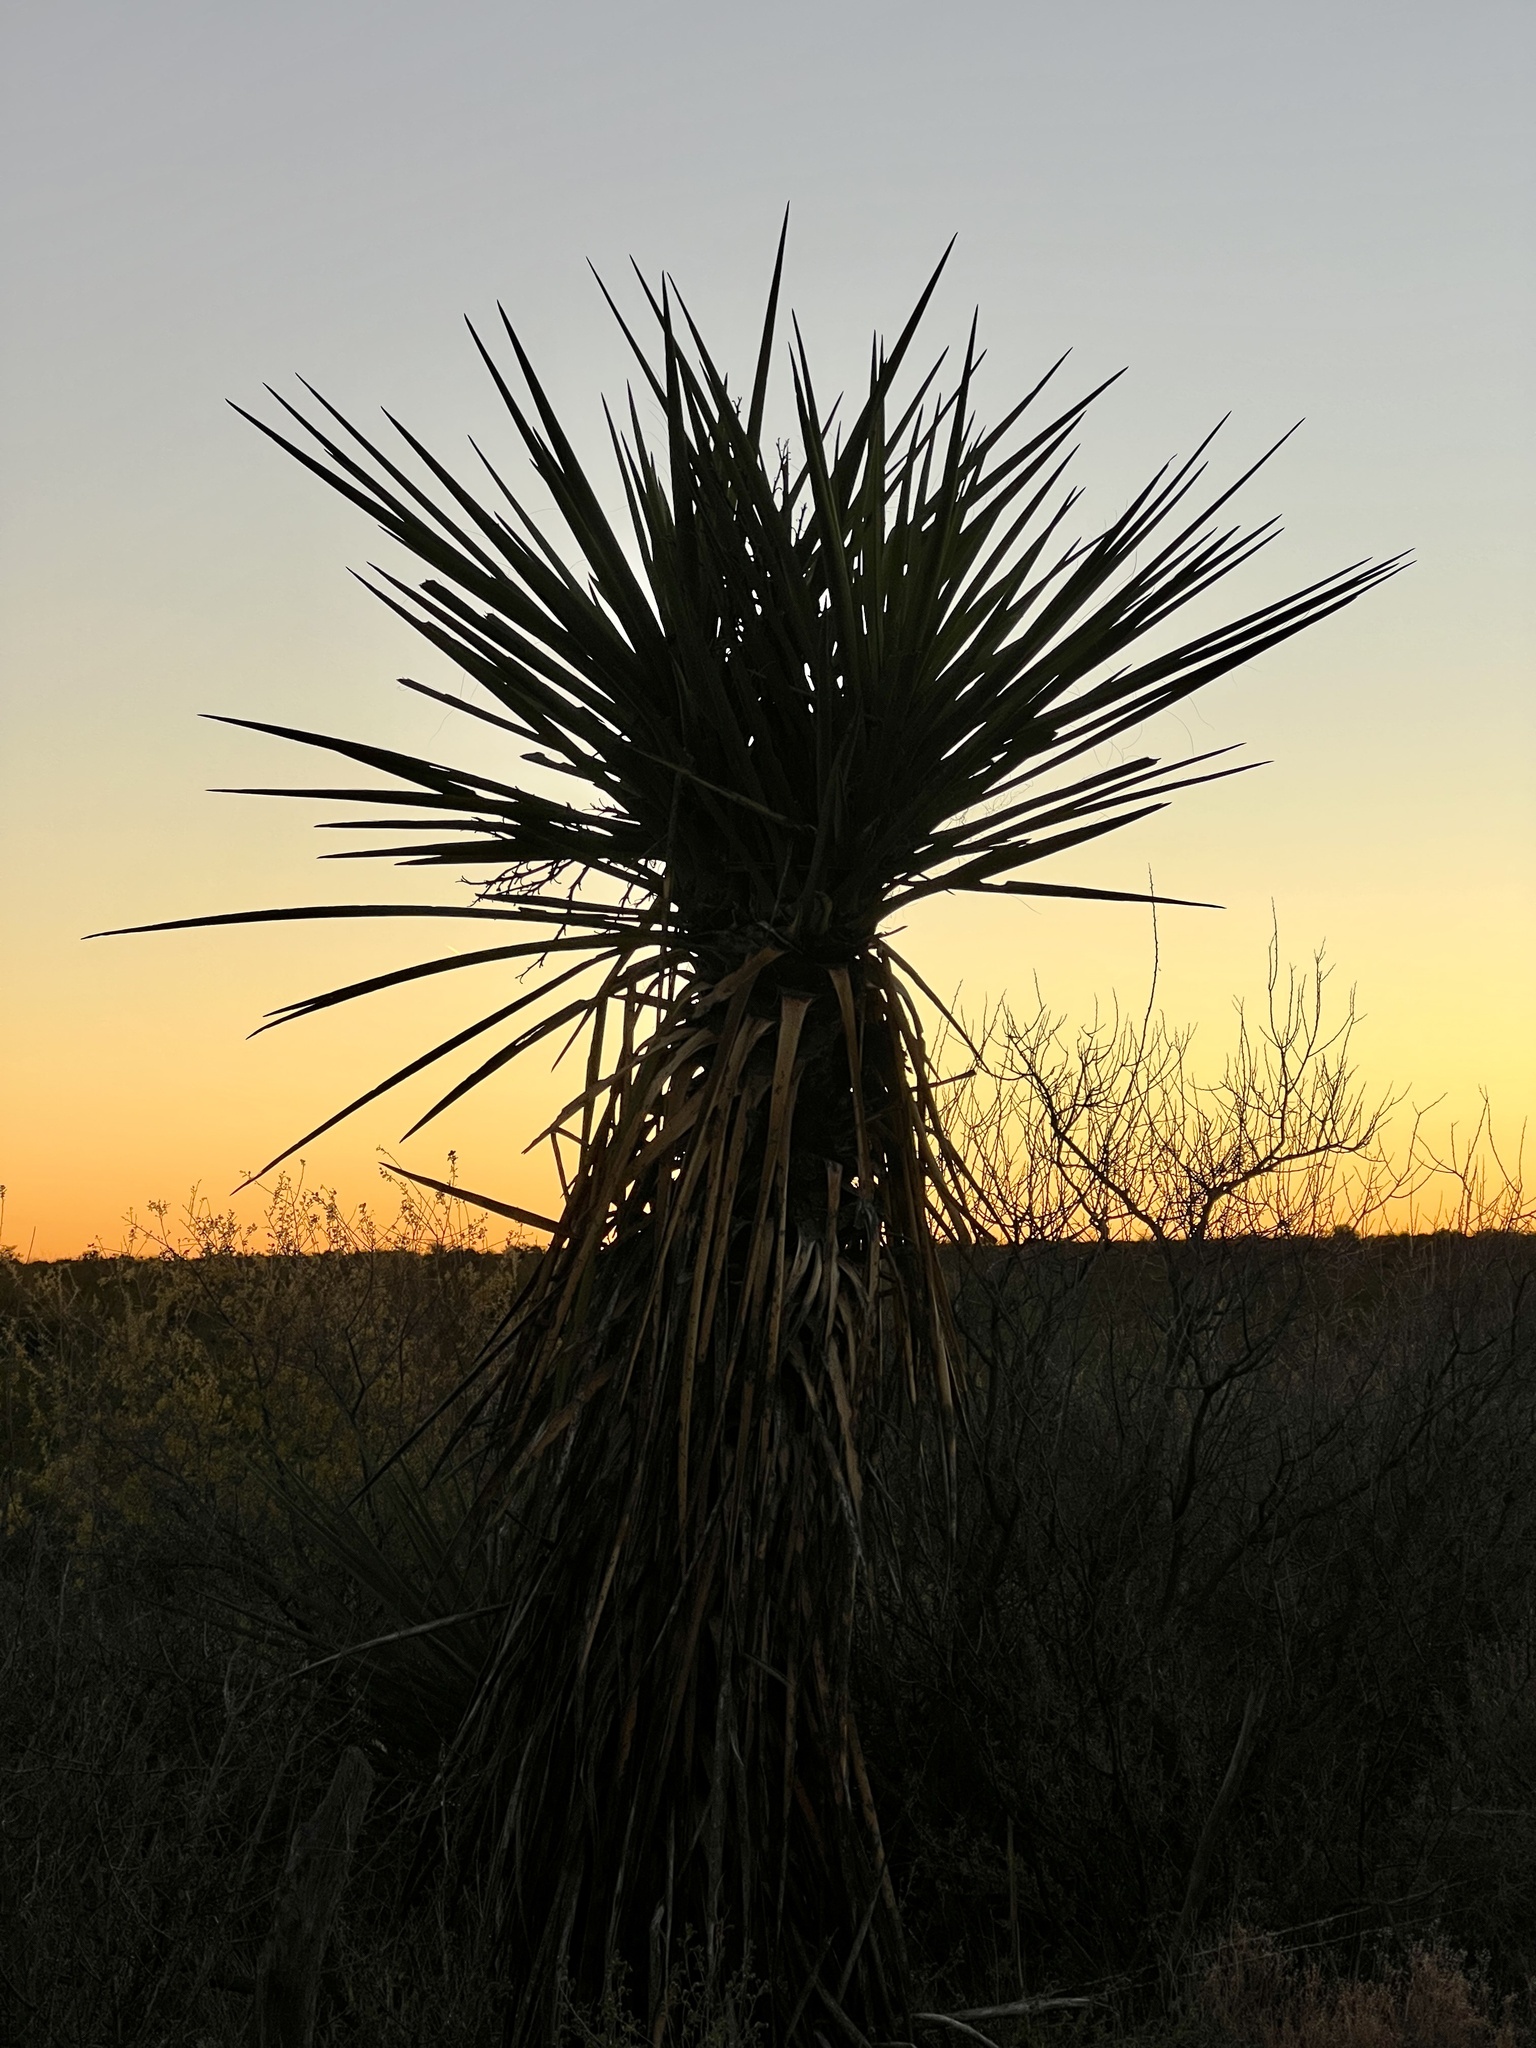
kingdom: Plantae
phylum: Tracheophyta
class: Liliopsida
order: Asparagales
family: Asparagaceae
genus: Yucca
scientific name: Yucca treculiana
